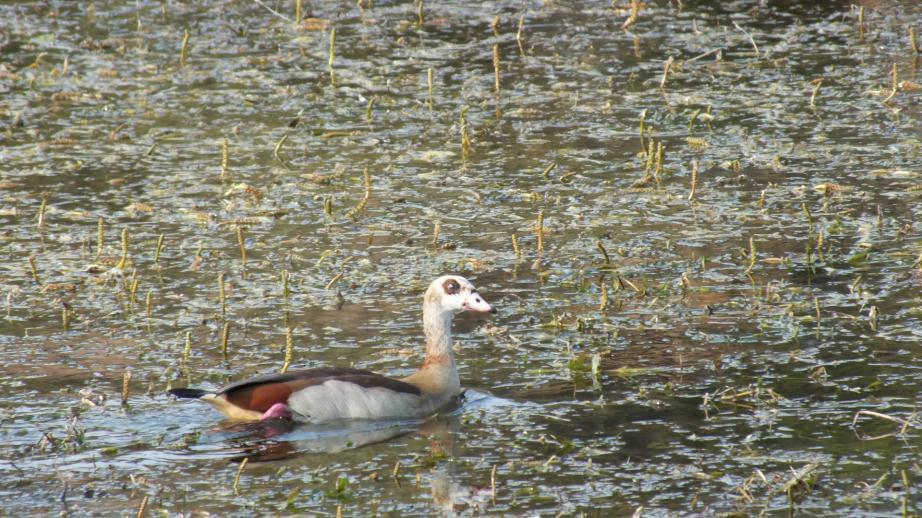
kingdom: Animalia
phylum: Chordata
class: Aves
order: Anseriformes
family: Anatidae
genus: Alopochen
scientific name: Alopochen aegyptiaca
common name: Egyptian goose
